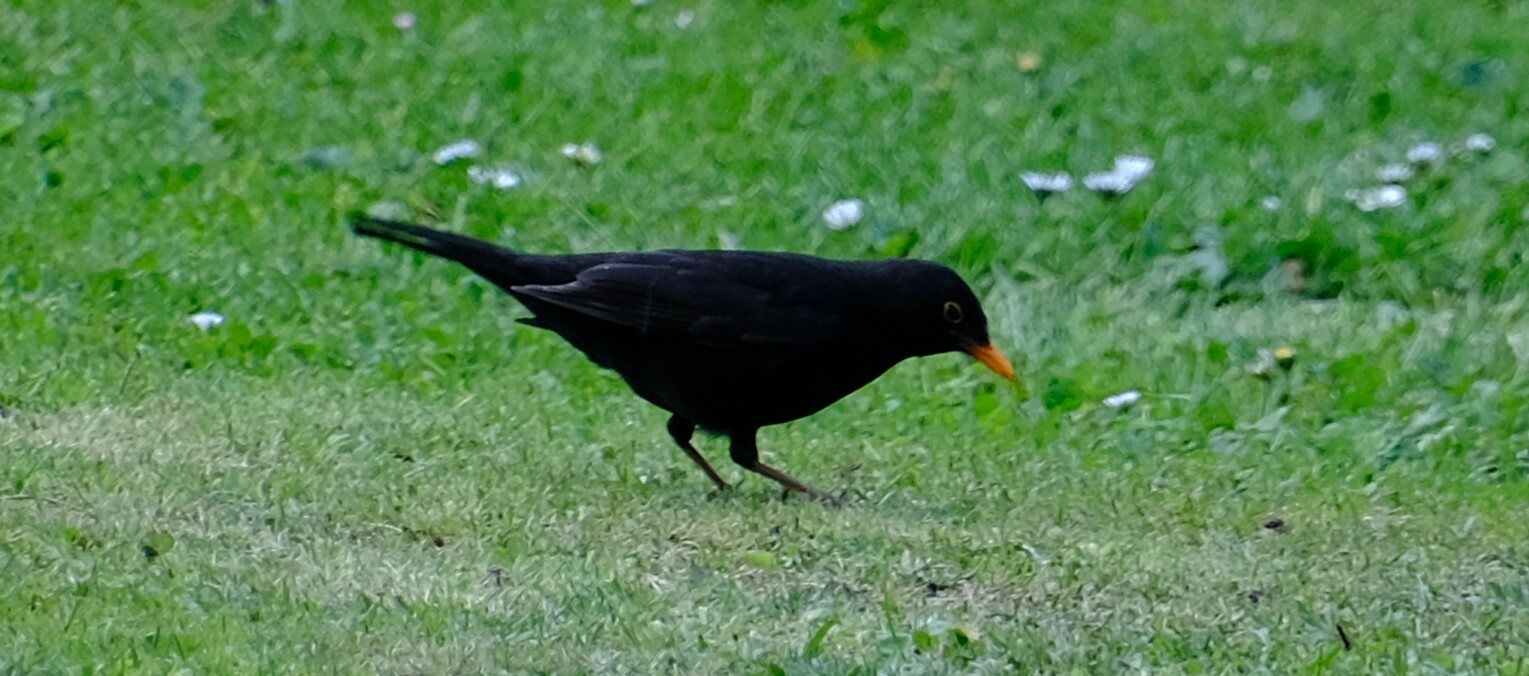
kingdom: Animalia
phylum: Chordata
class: Aves
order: Passeriformes
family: Turdidae
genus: Turdus
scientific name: Turdus merula
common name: Common blackbird
